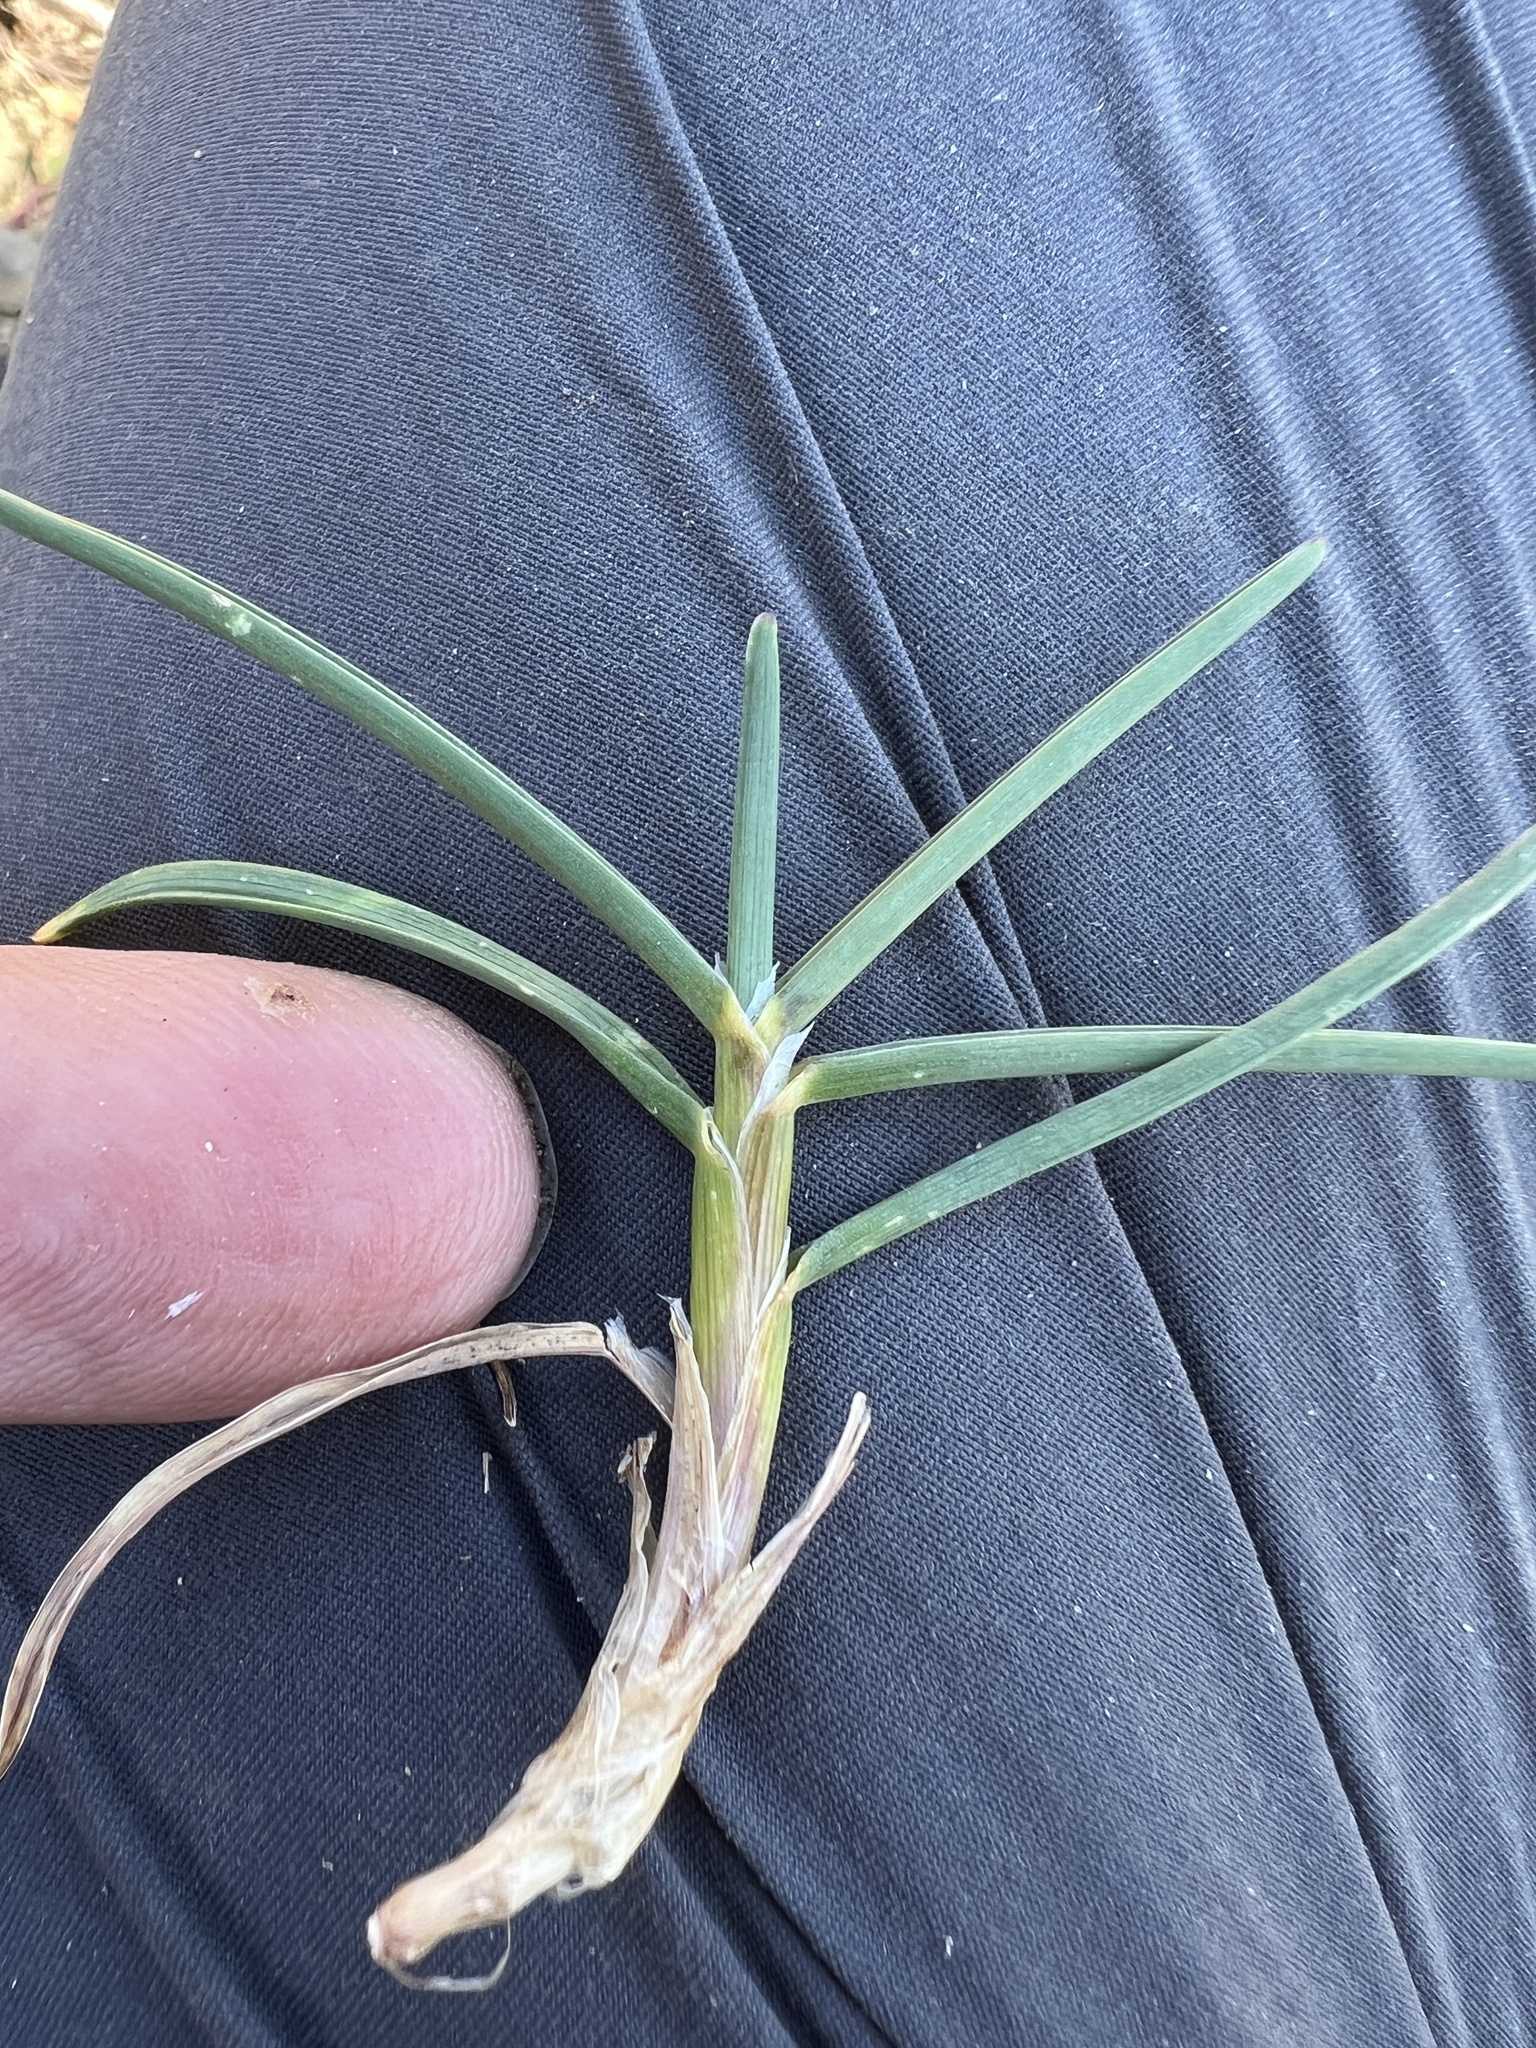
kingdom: Plantae
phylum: Tracheophyta
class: Liliopsida
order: Poales
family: Poaceae
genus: Poa
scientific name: Poa curtifolia
